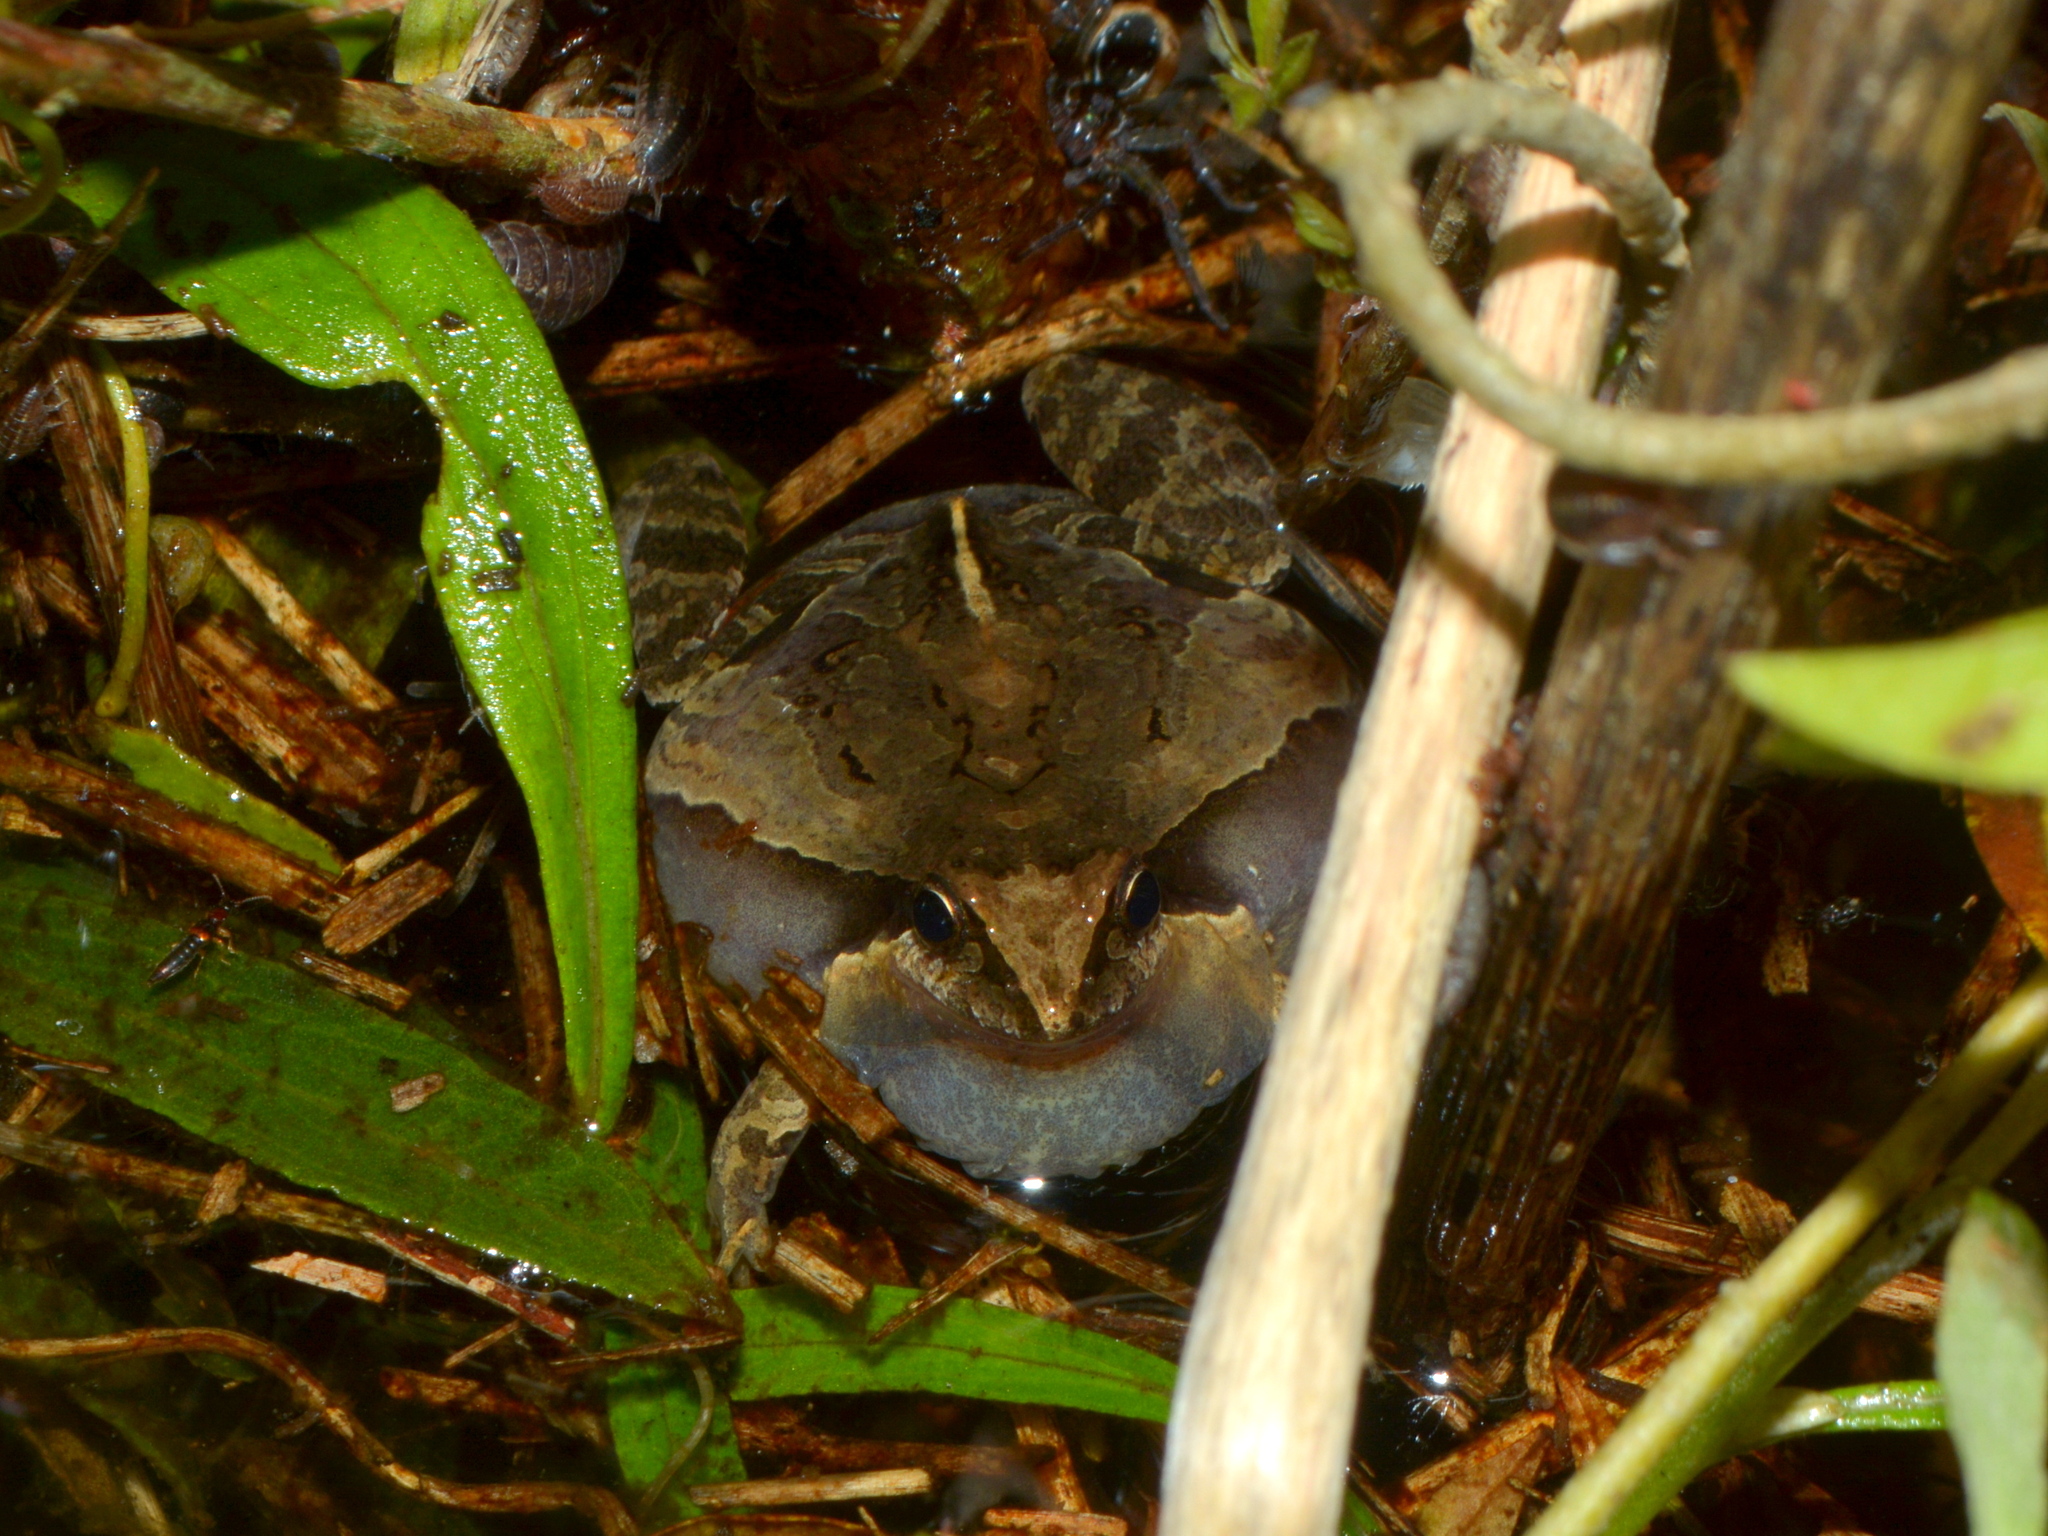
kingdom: Animalia
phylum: Chordata
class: Amphibia
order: Anura
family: Leptodactylidae
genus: Physalaemus
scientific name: Physalaemus gracilis
